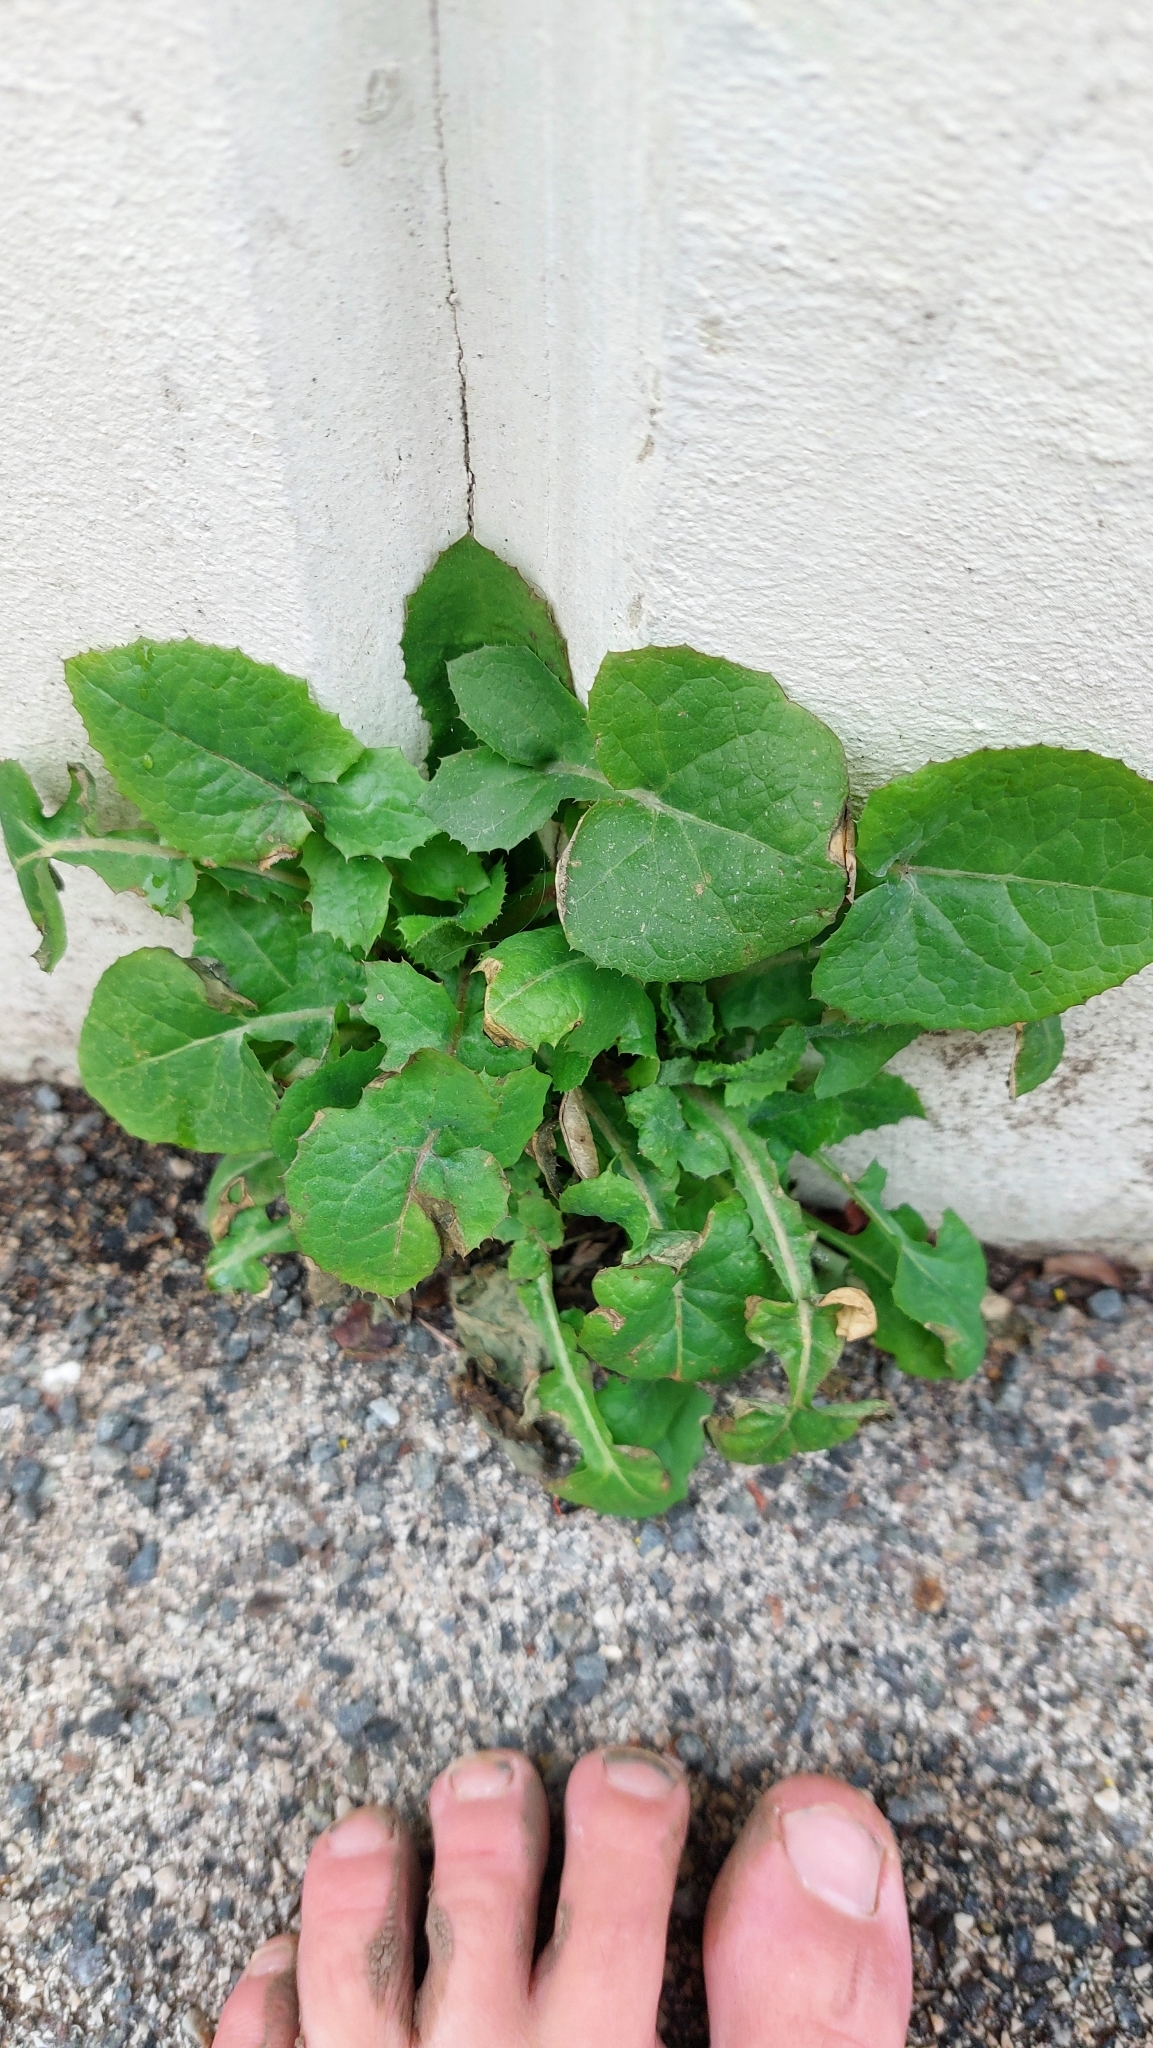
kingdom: Plantae
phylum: Tracheophyta
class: Magnoliopsida
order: Asterales
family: Asteraceae
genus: Sonchus
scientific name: Sonchus oleraceus
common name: Common sowthistle
